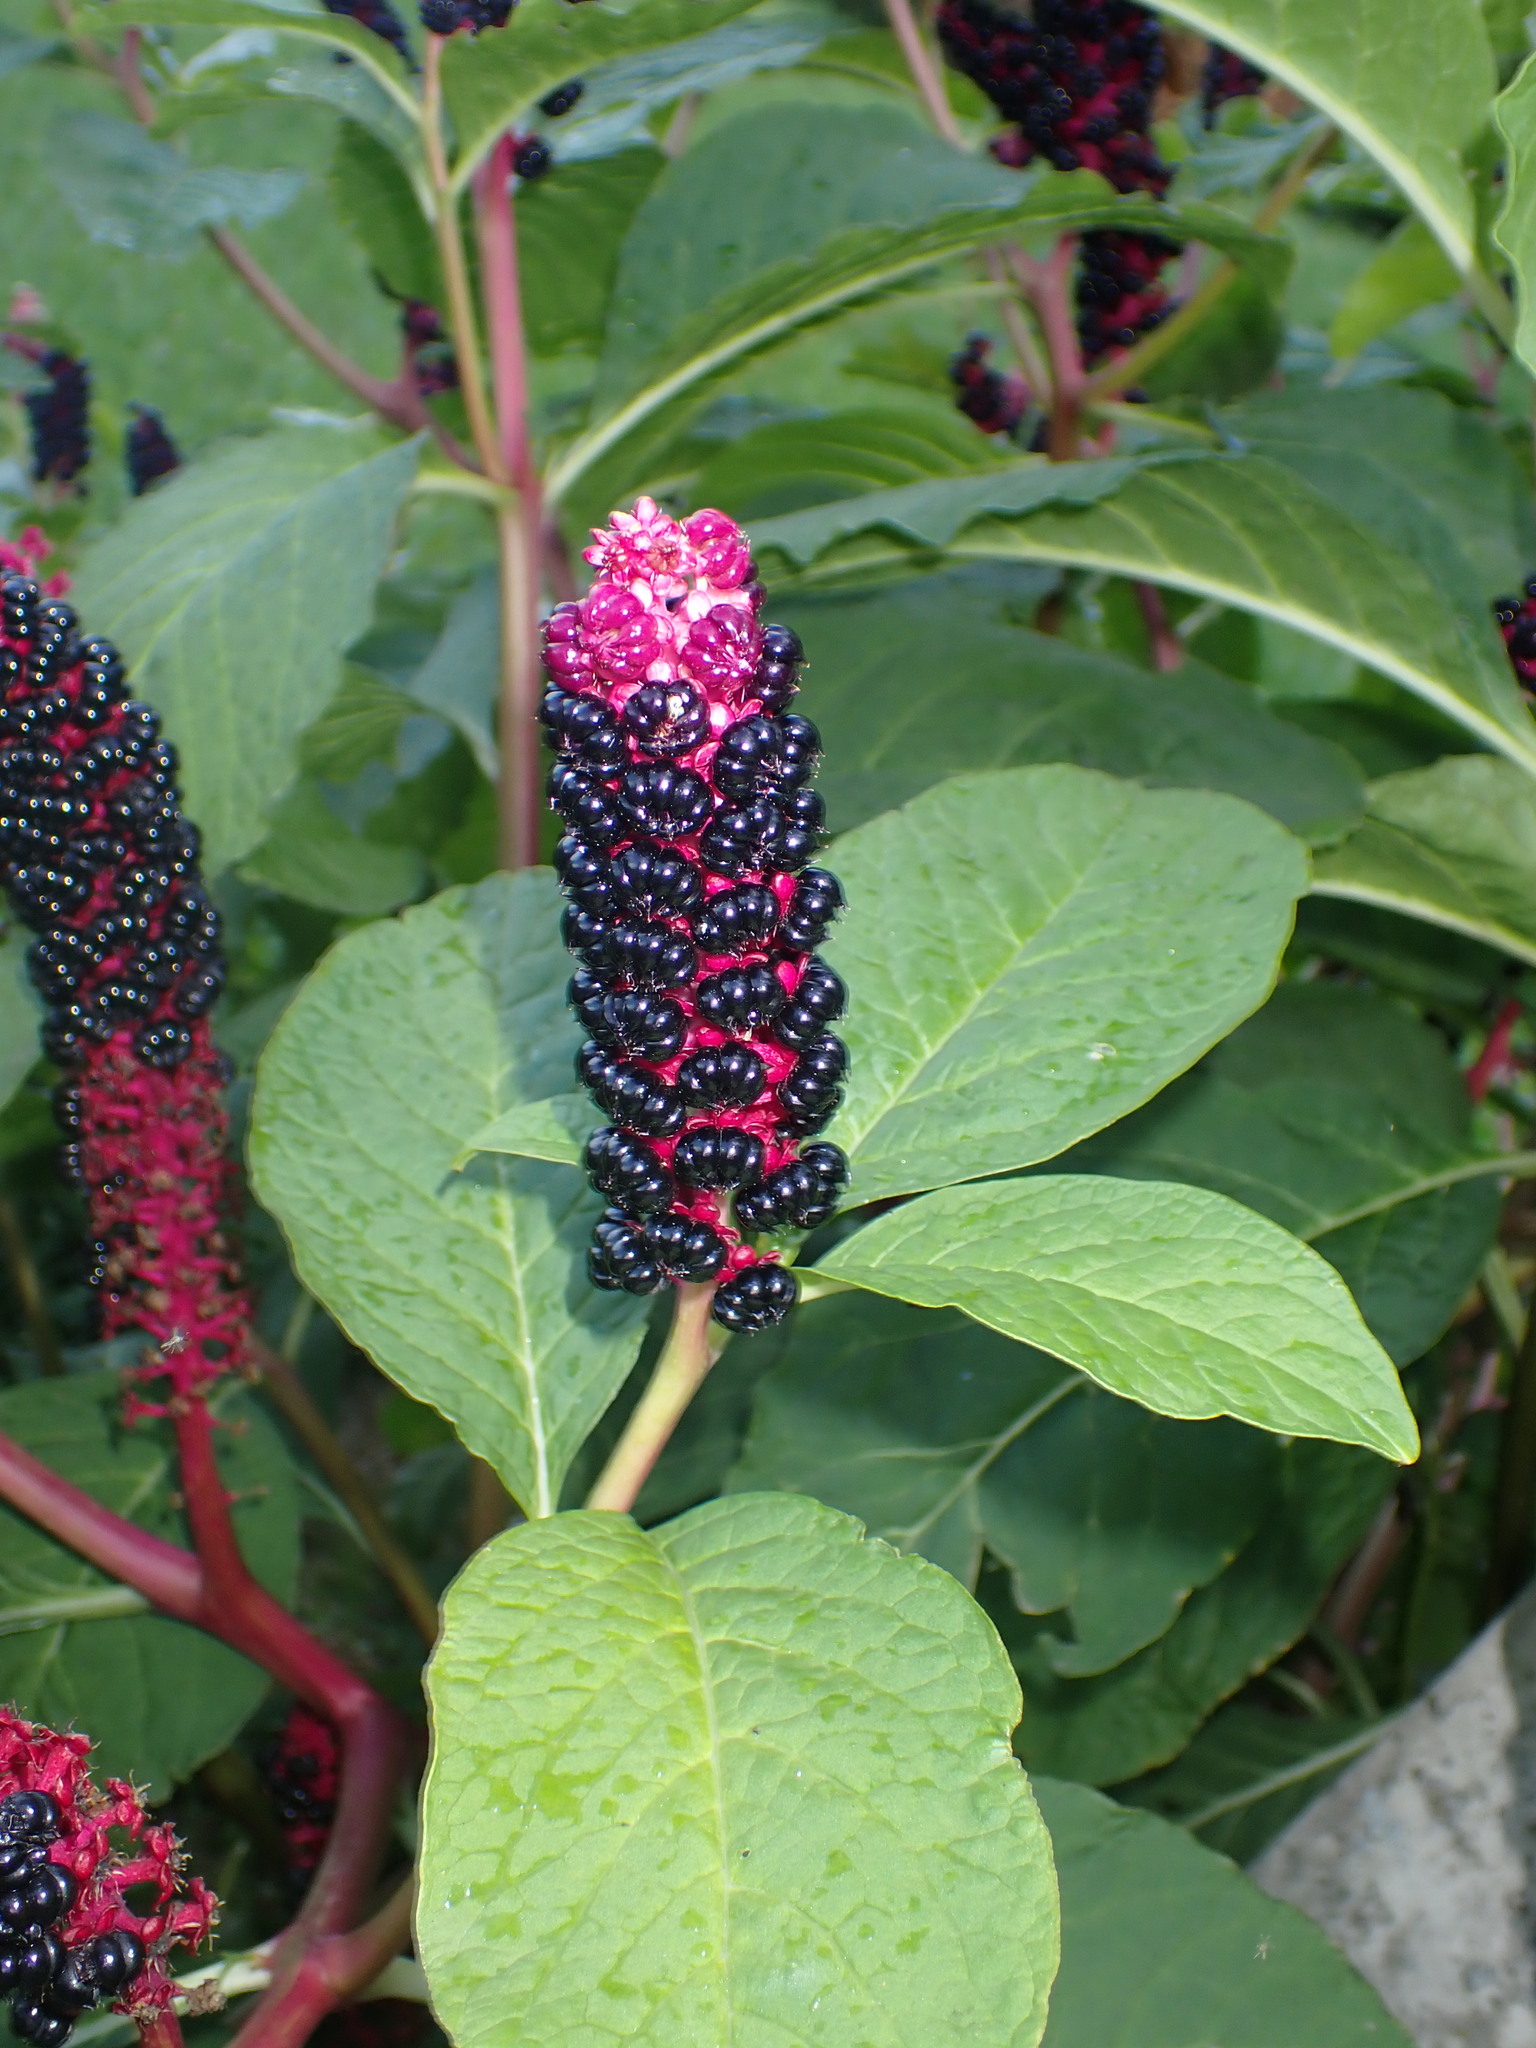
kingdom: Plantae
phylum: Tracheophyta
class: Magnoliopsida
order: Caryophyllales
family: Phytolaccaceae
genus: Phytolacca
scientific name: Phytolacca acinosa
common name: Indian pokeweed
